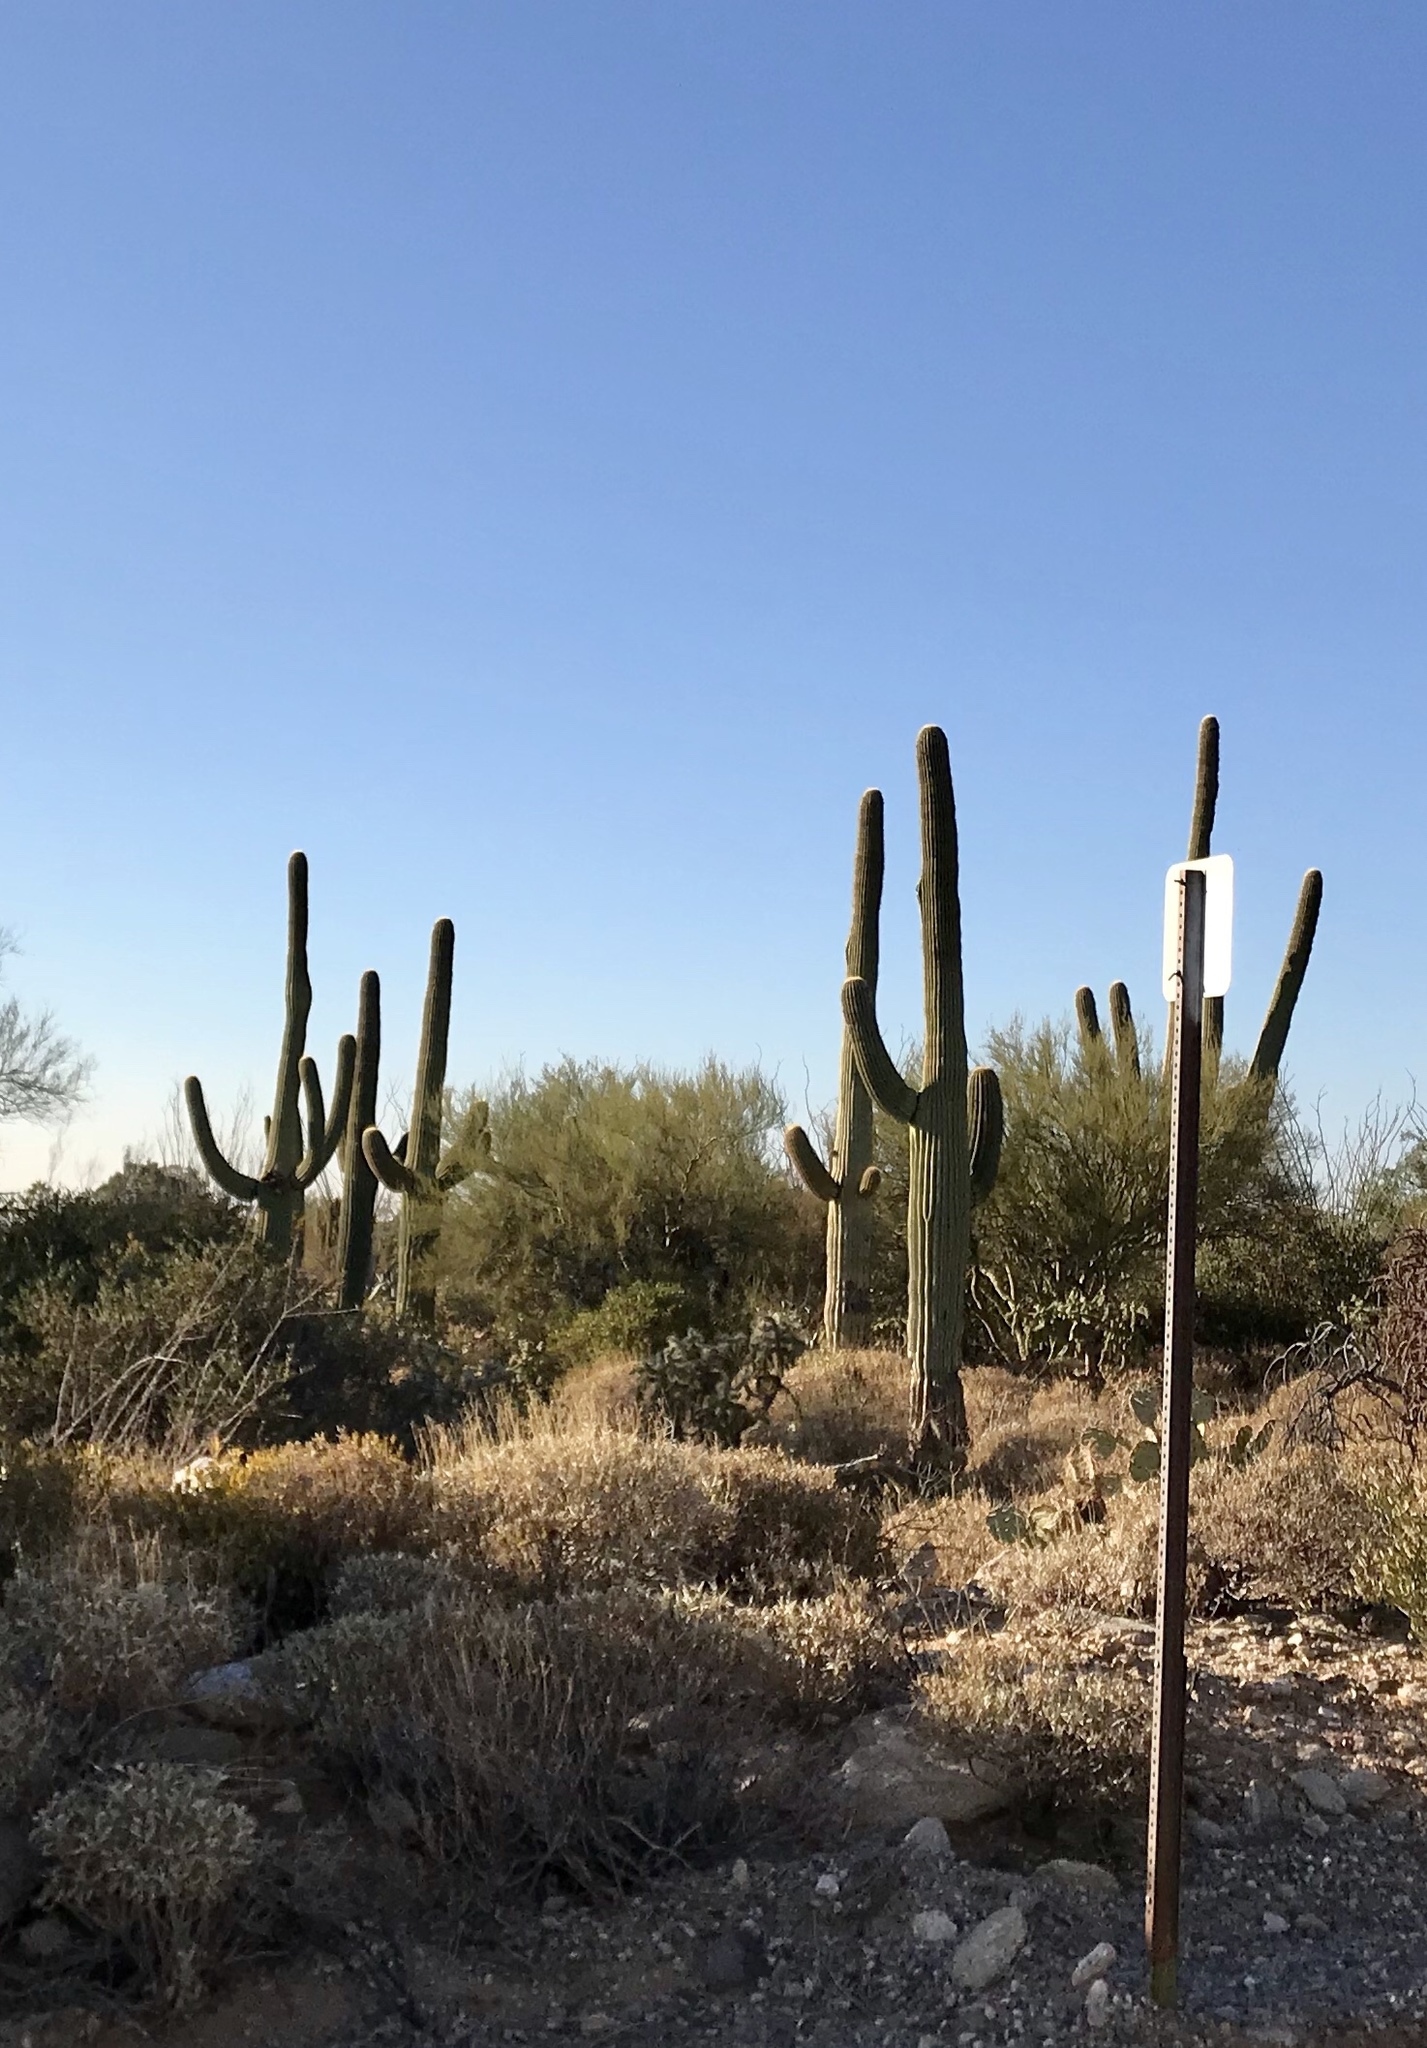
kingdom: Plantae
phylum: Tracheophyta
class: Magnoliopsida
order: Caryophyllales
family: Cactaceae
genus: Carnegiea
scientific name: Carnegiea gigantea
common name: Saguaro
